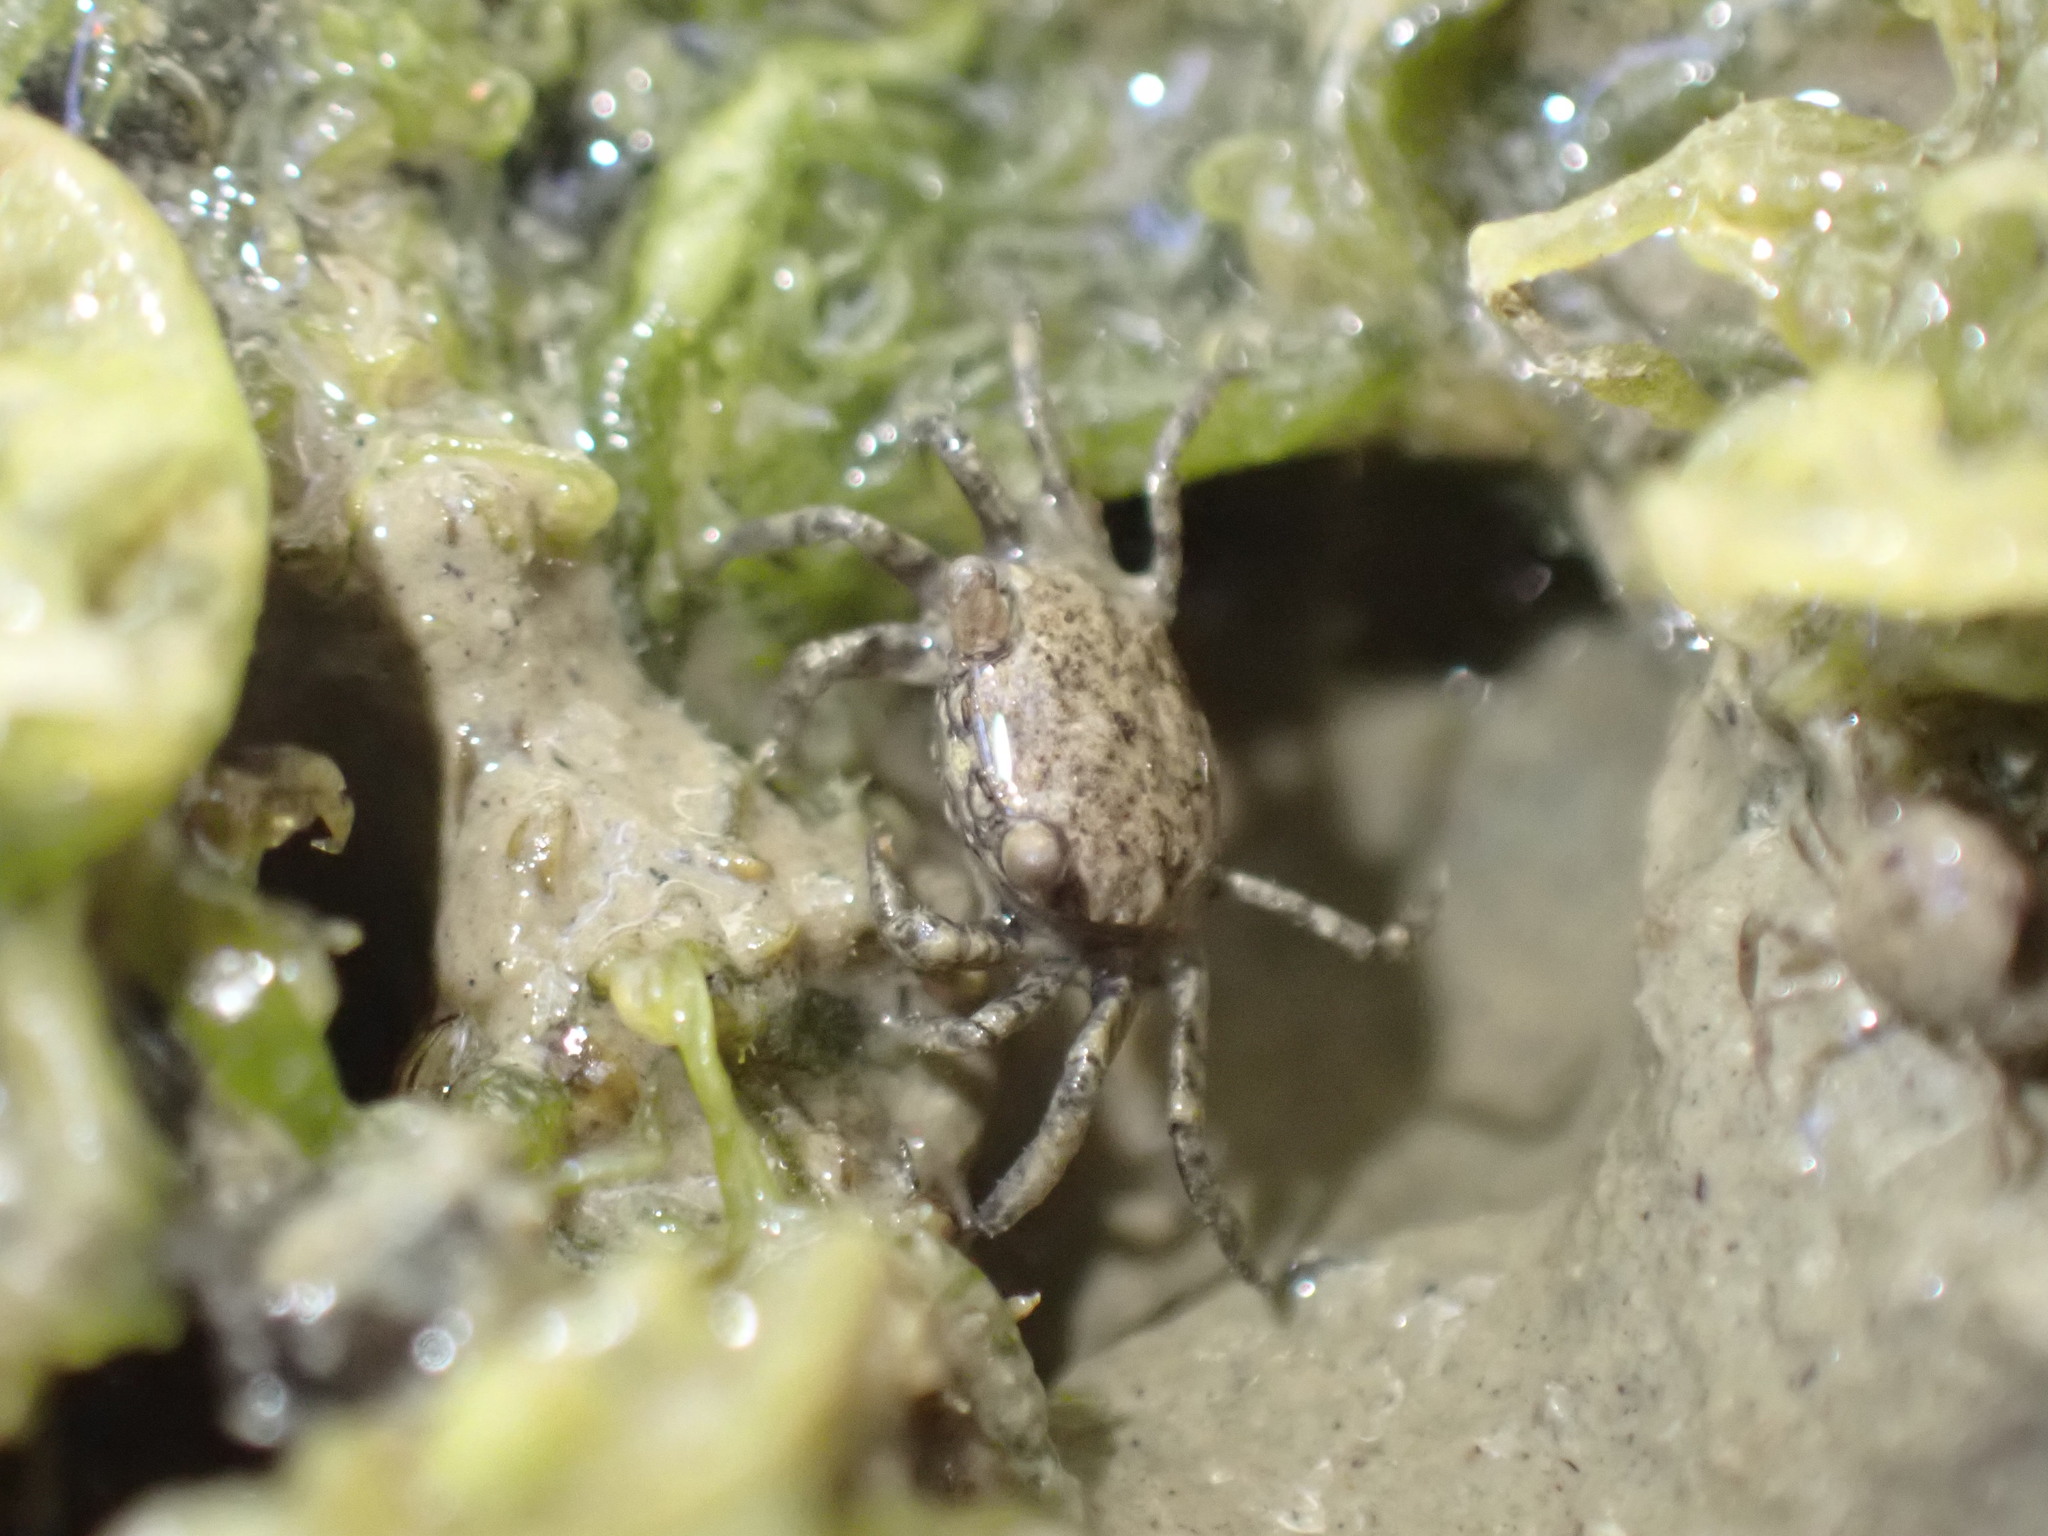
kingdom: Animalia
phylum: Arthropoda
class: Malacostraca
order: Decapoda
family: Varunidae
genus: Austrohelice
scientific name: Austrohelice crassa
